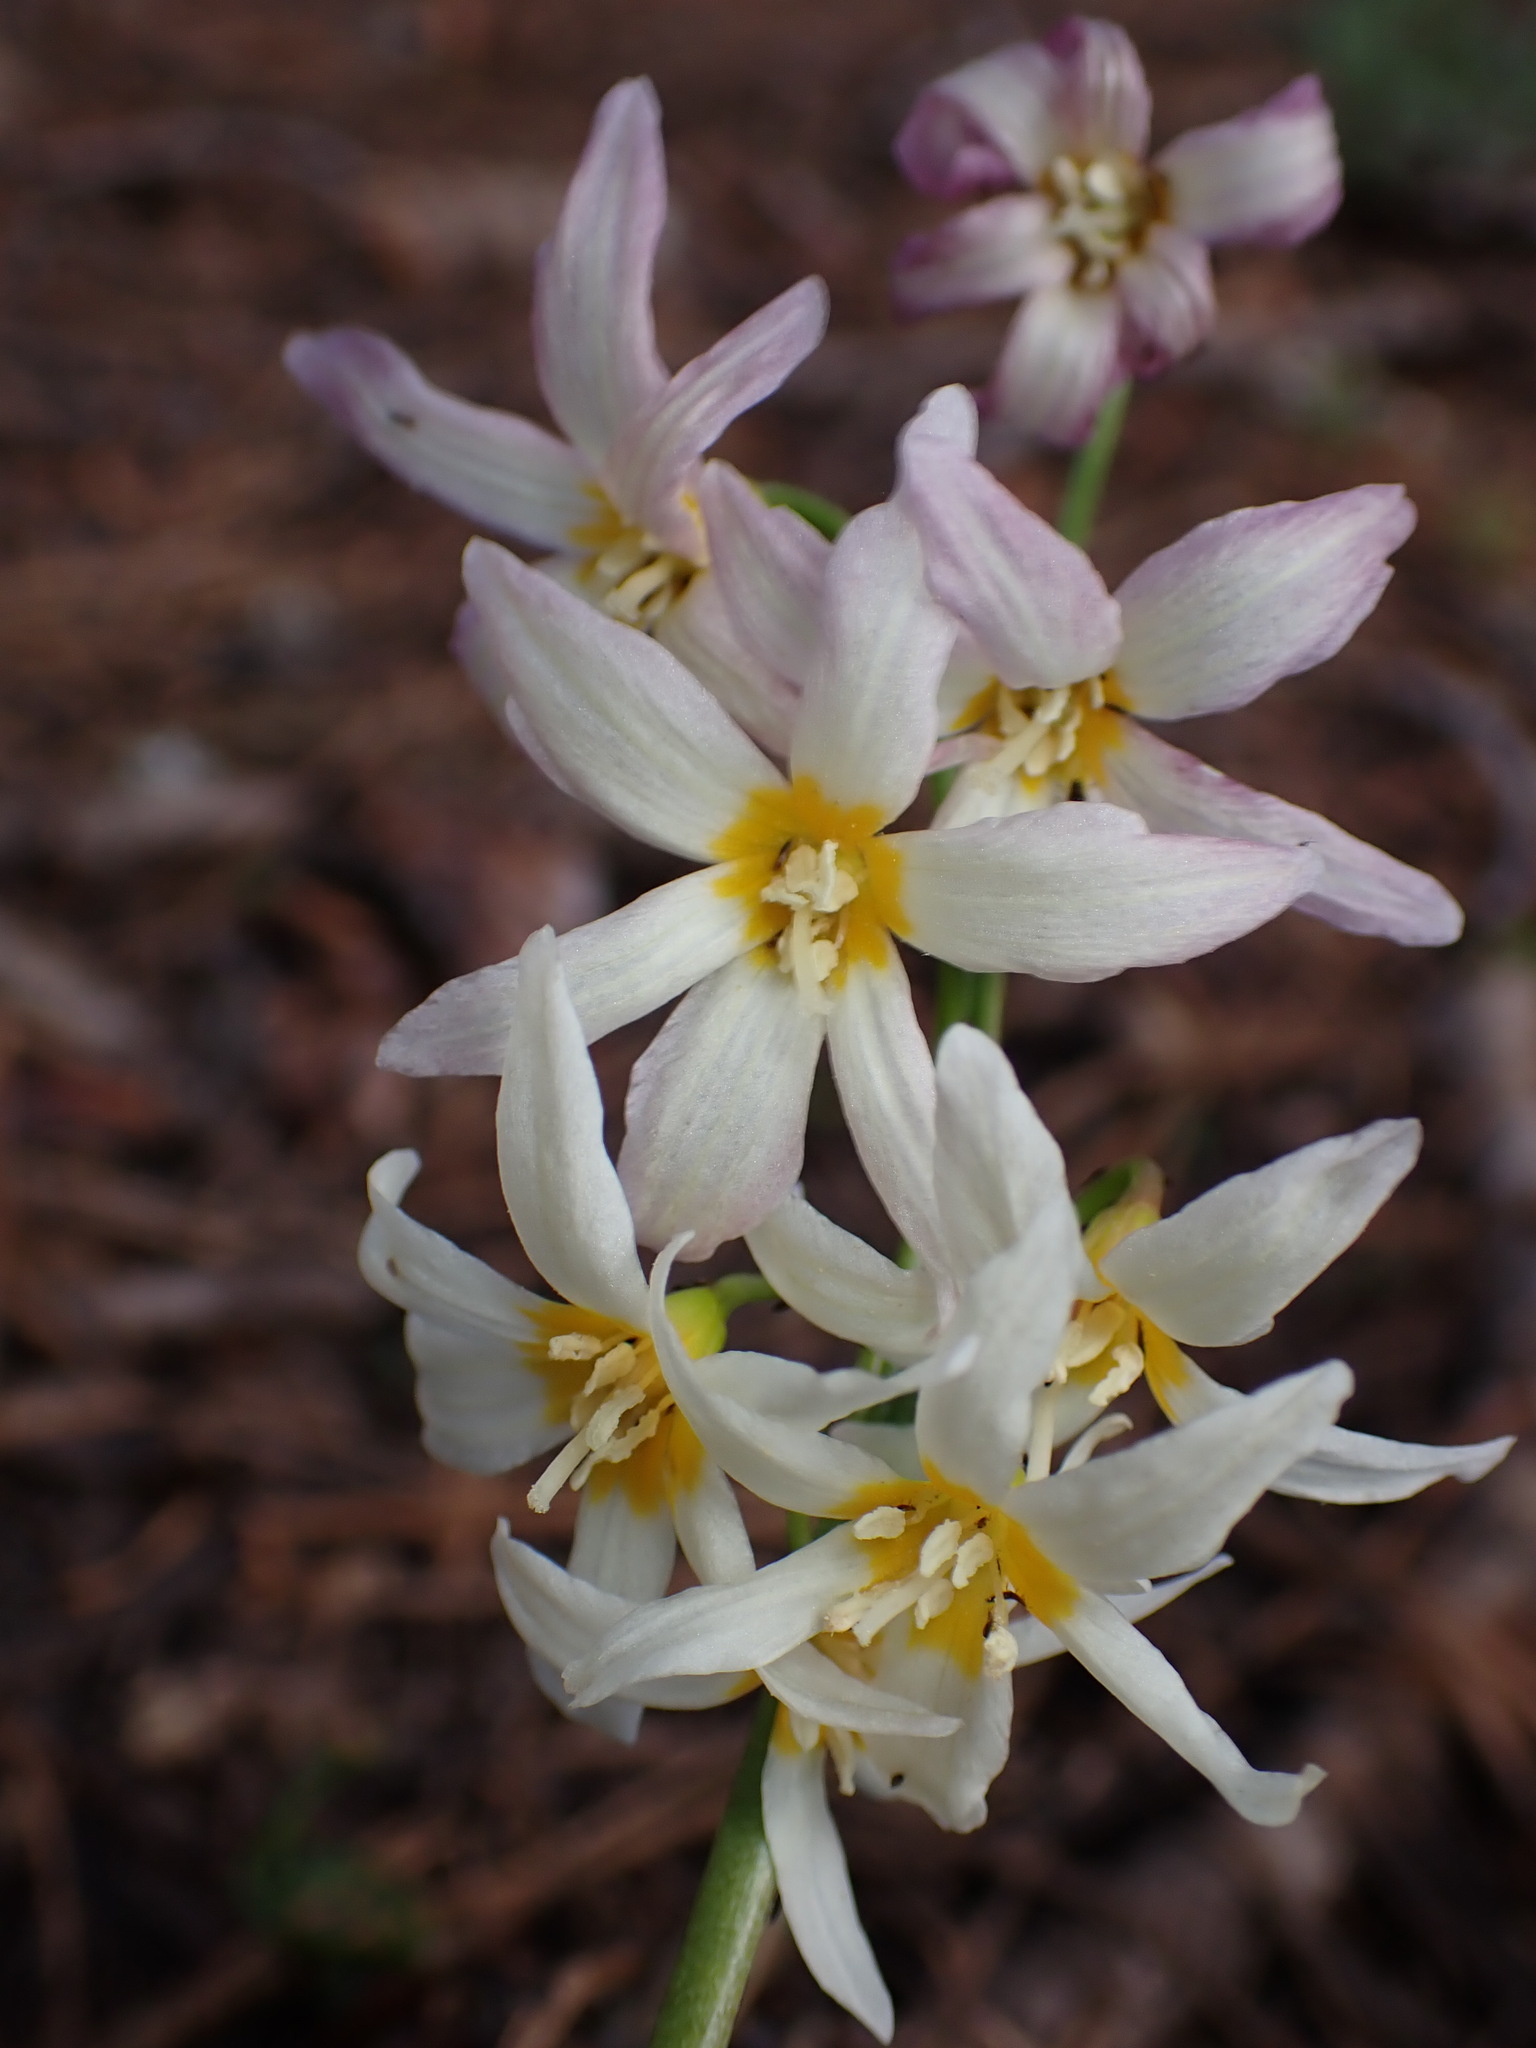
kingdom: Plantae
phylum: Tracheophyta
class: Liliopsida
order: Liliales
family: Liliaceae
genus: Erythronium
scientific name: Erythronium purpurascens
